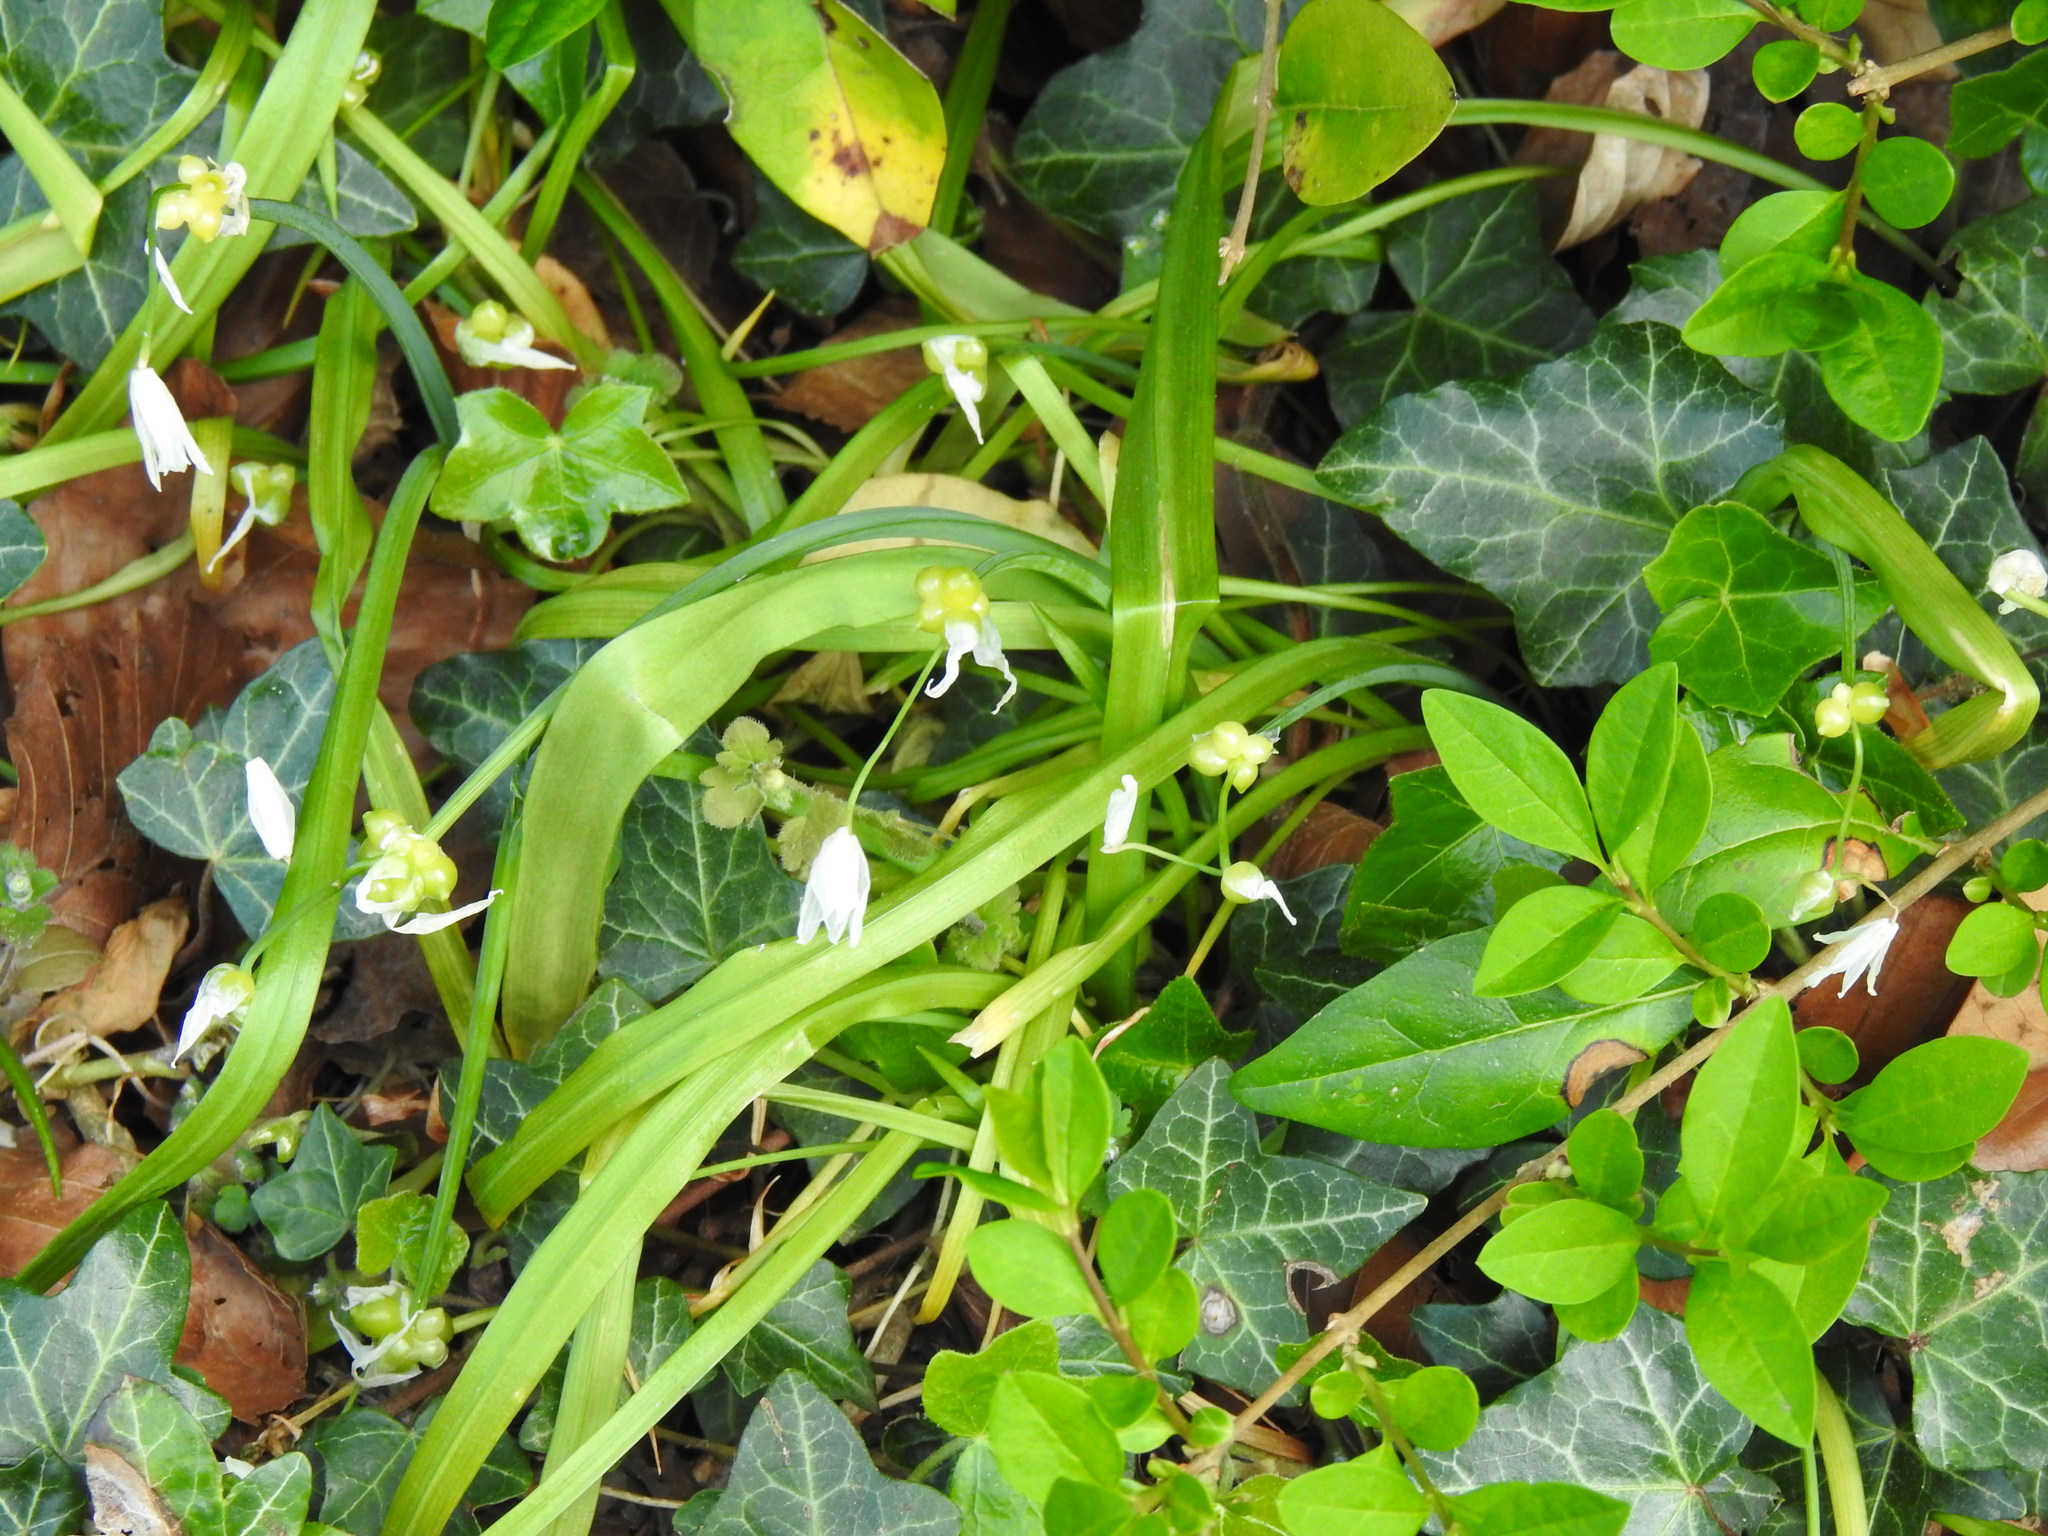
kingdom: Plantae
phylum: Tracheophyta
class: Liliopsida
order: Asparagales
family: Amaryllidaceae
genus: Allium
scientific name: Allium paradoxum
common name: Few-flowered garlic
